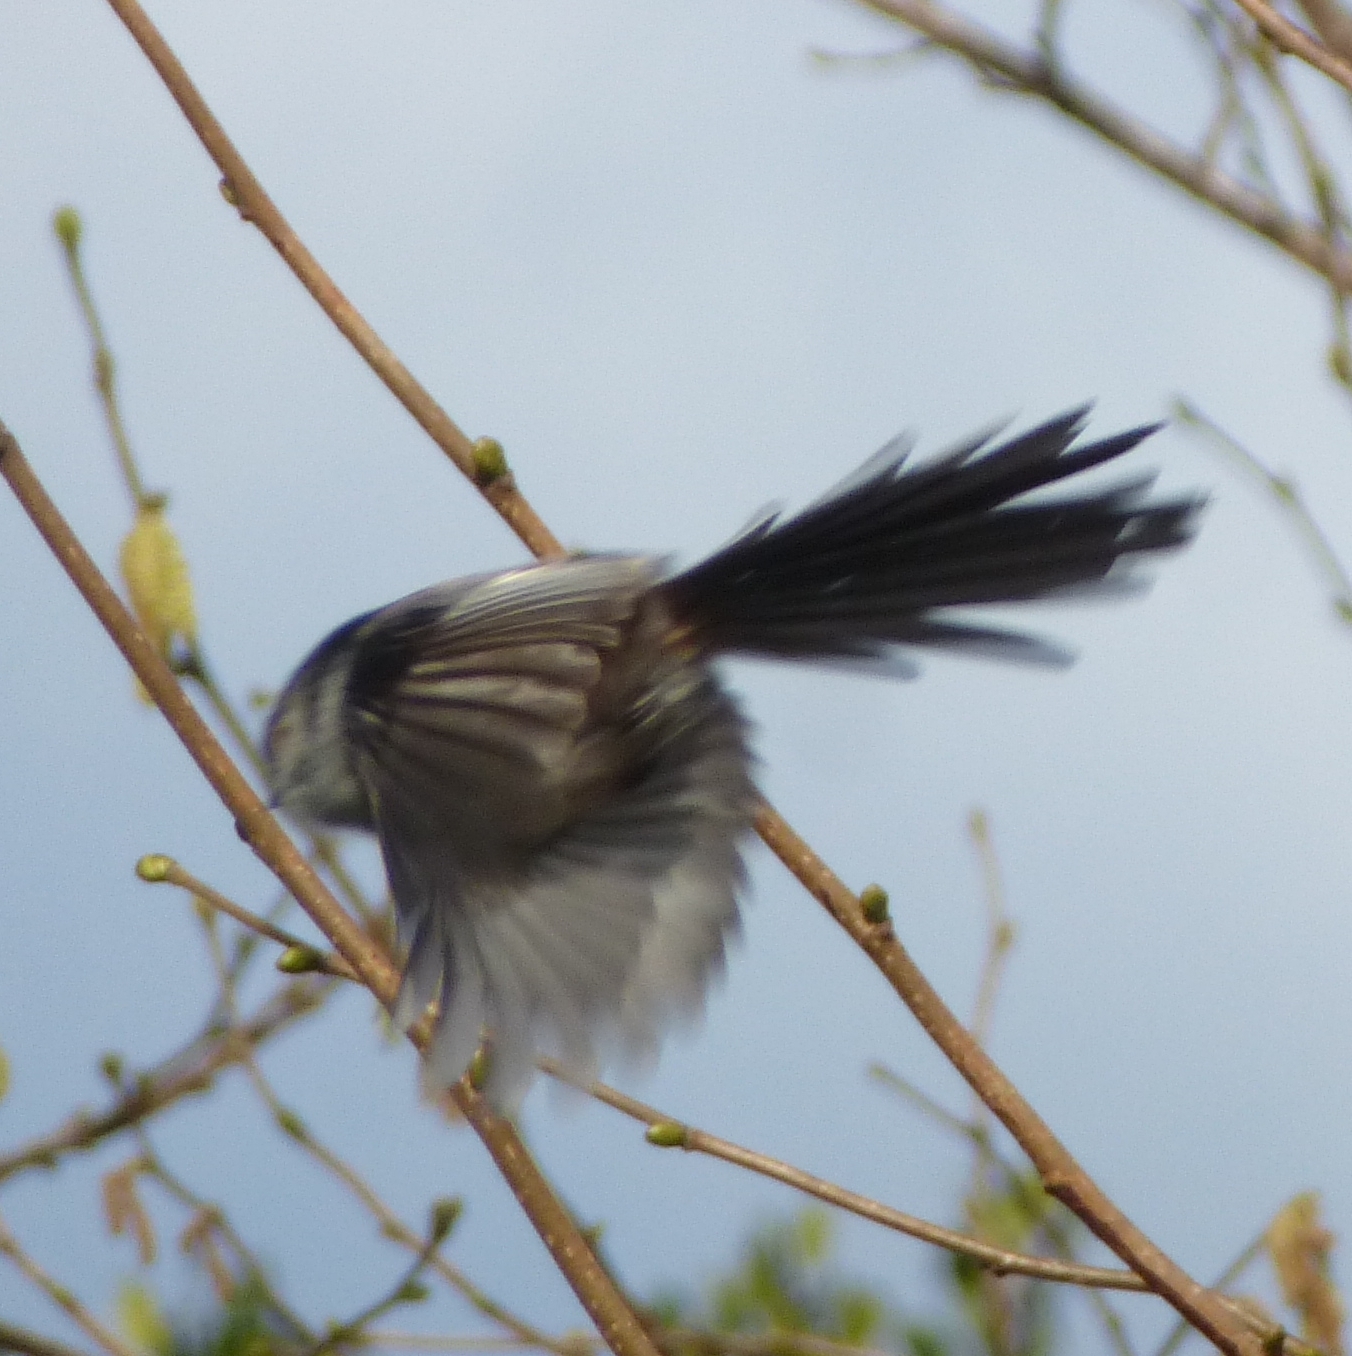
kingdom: Animalia
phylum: Chordata
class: Aves
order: Passeriformes
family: Aegithalidae
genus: Aegithalos
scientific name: Aegithalos caudatus
